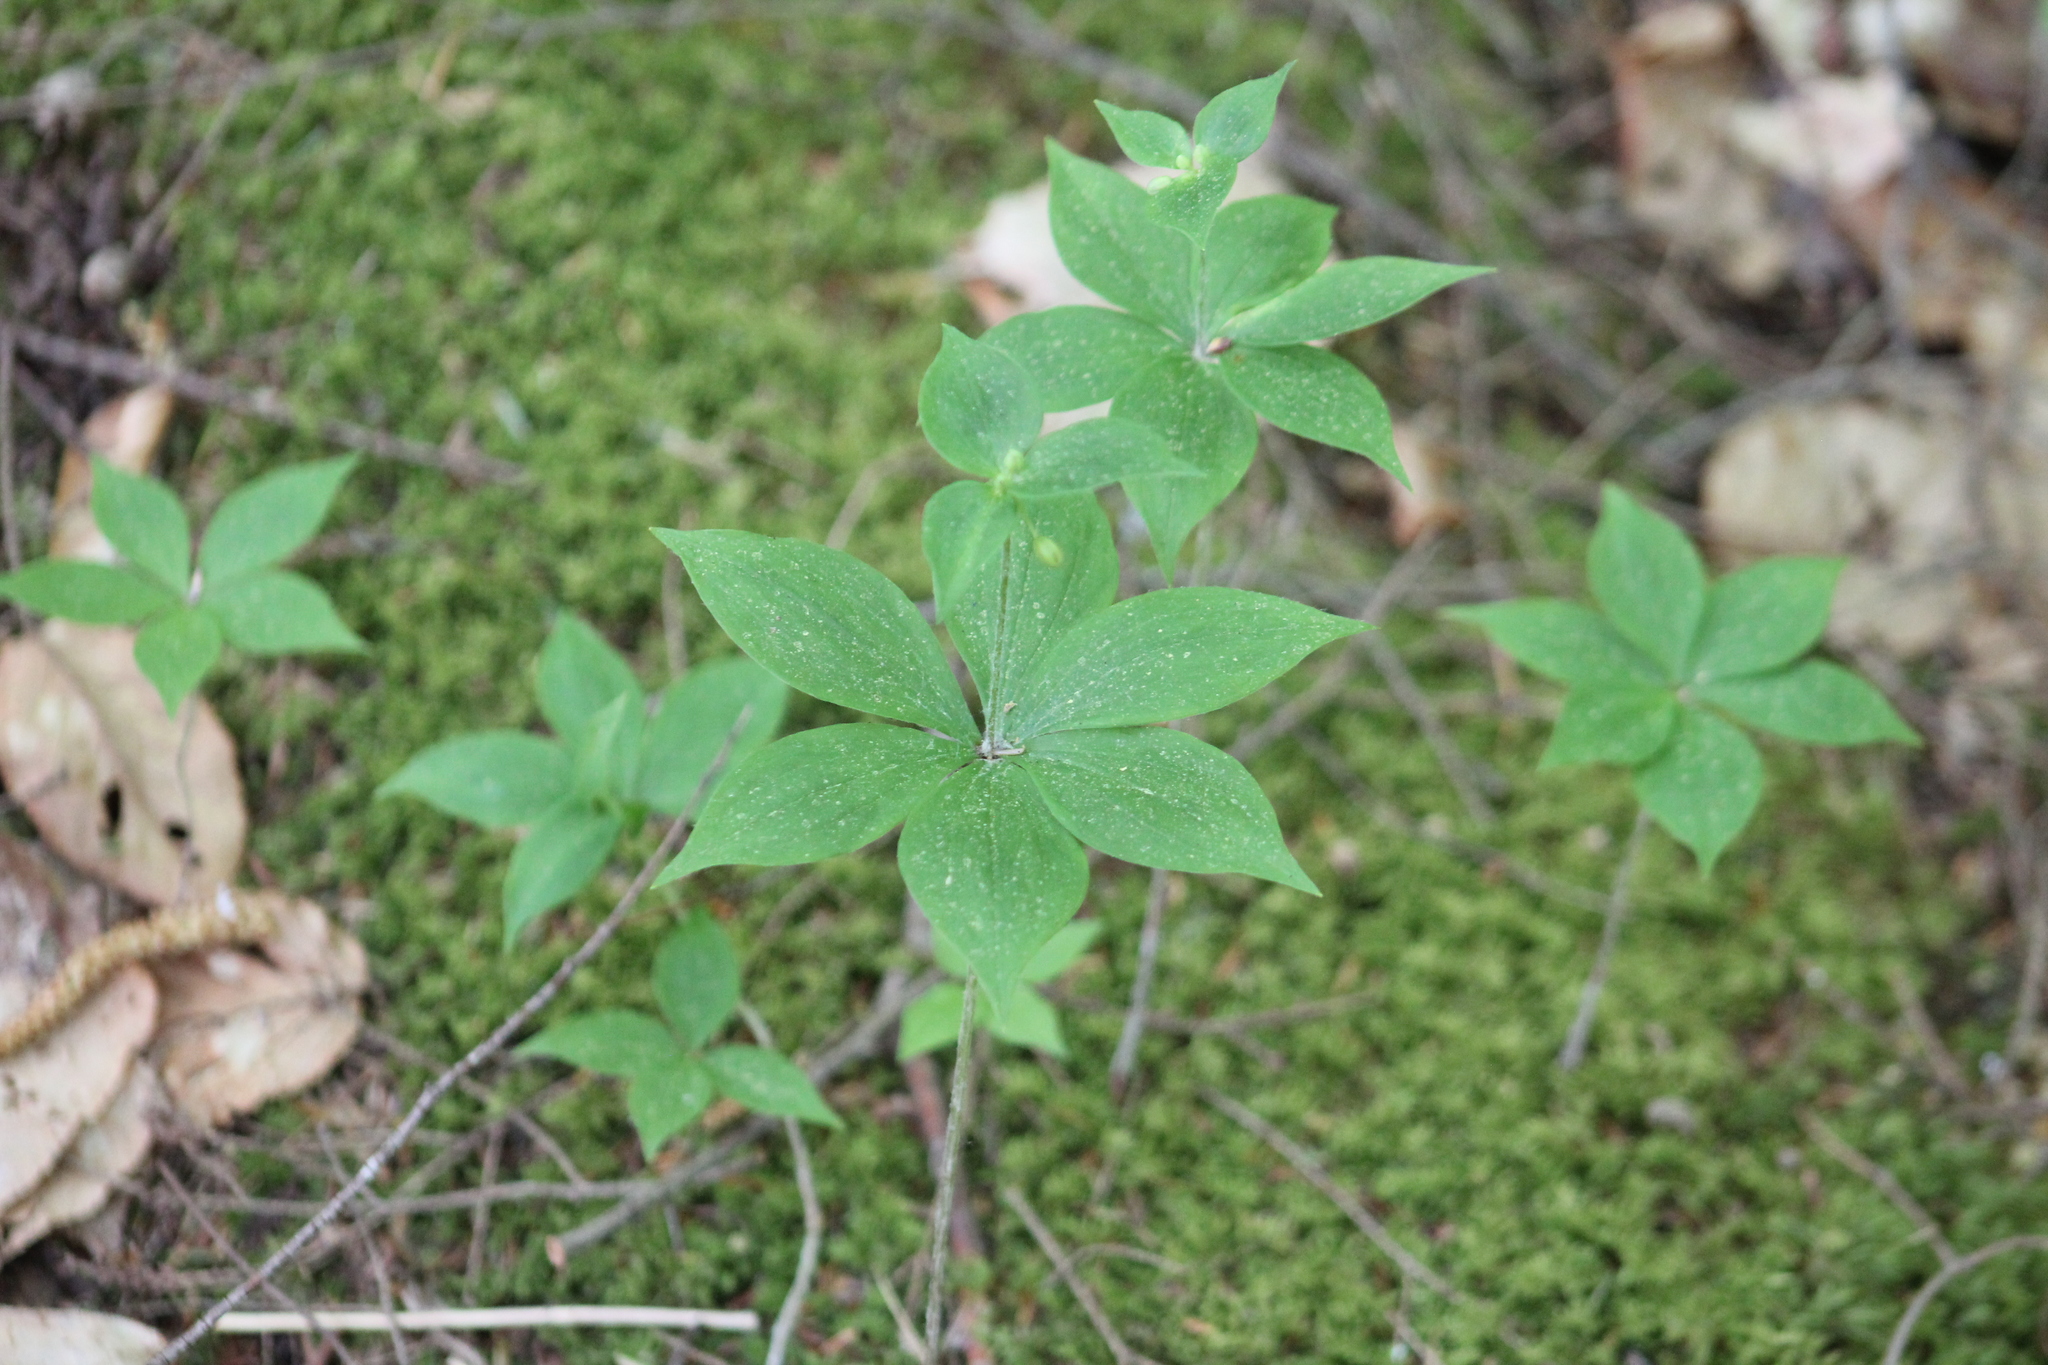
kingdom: Plantae
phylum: Tracheophyta
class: Liliopsida
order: Liliales
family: Liliaceae
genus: Medeola
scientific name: Medeola virginiana
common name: Indian cucumber-root
